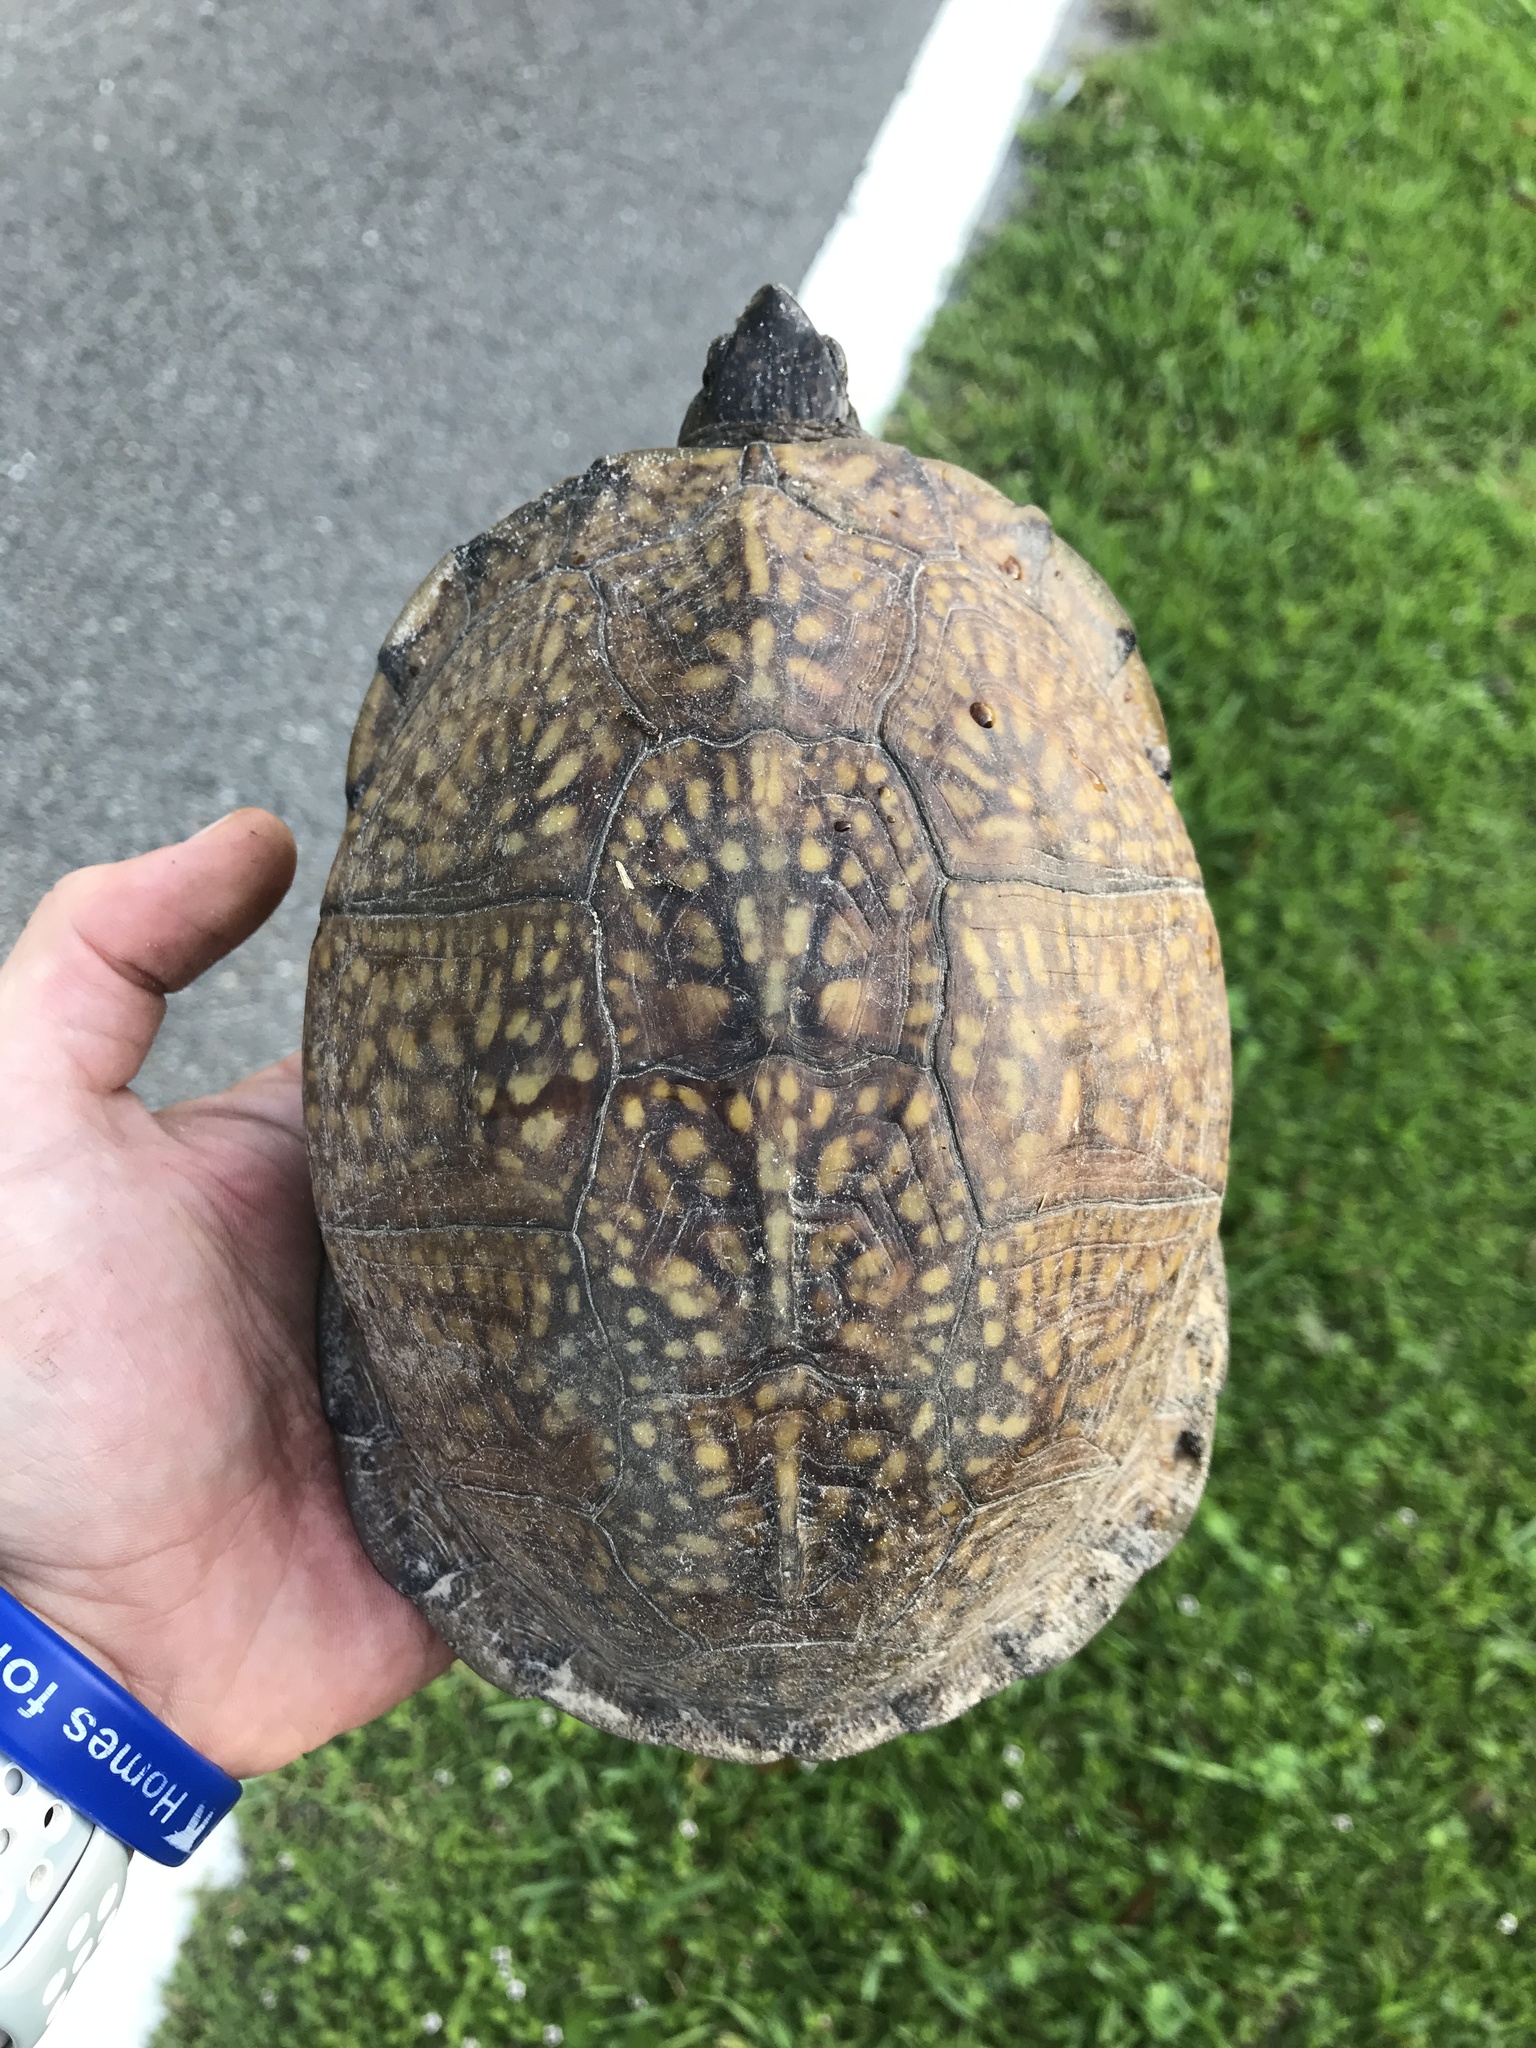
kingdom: Animalia
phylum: Chordata
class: Testudines
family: Emydidae
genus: Terrapene
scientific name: Terrapene carolina
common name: Common box turtle
